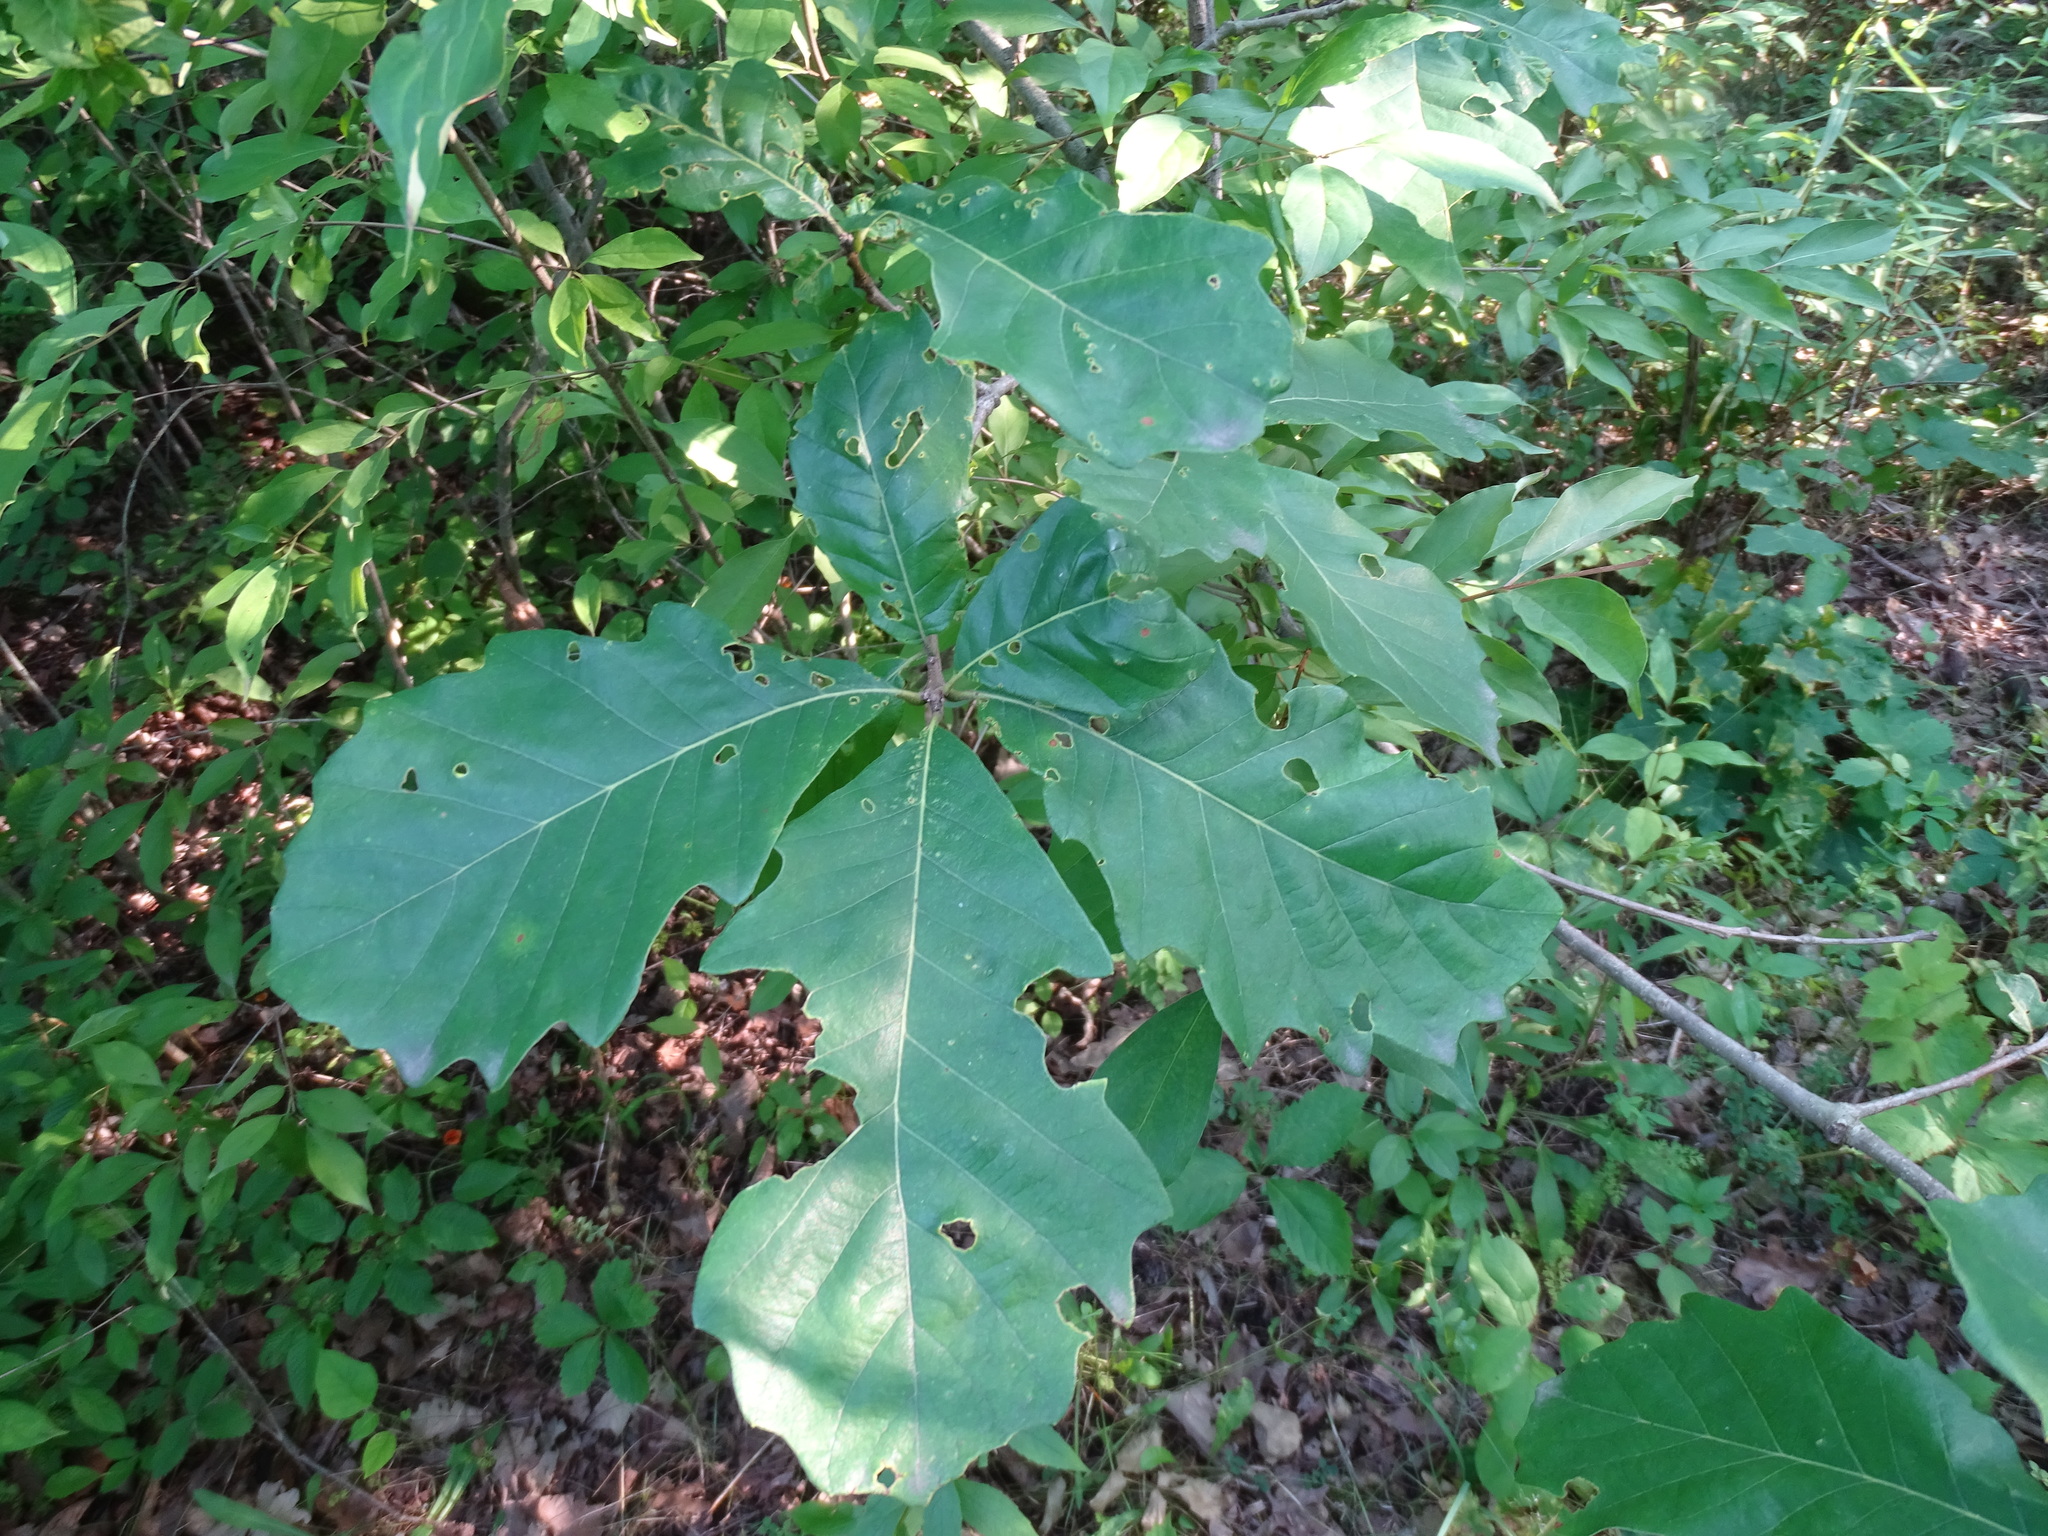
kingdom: Plantae
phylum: Tracheophyta
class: Magnoliopsida
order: Fagales
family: Fagaceae
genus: Quercus
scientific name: Quercus bicolor
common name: Swamp white oak
